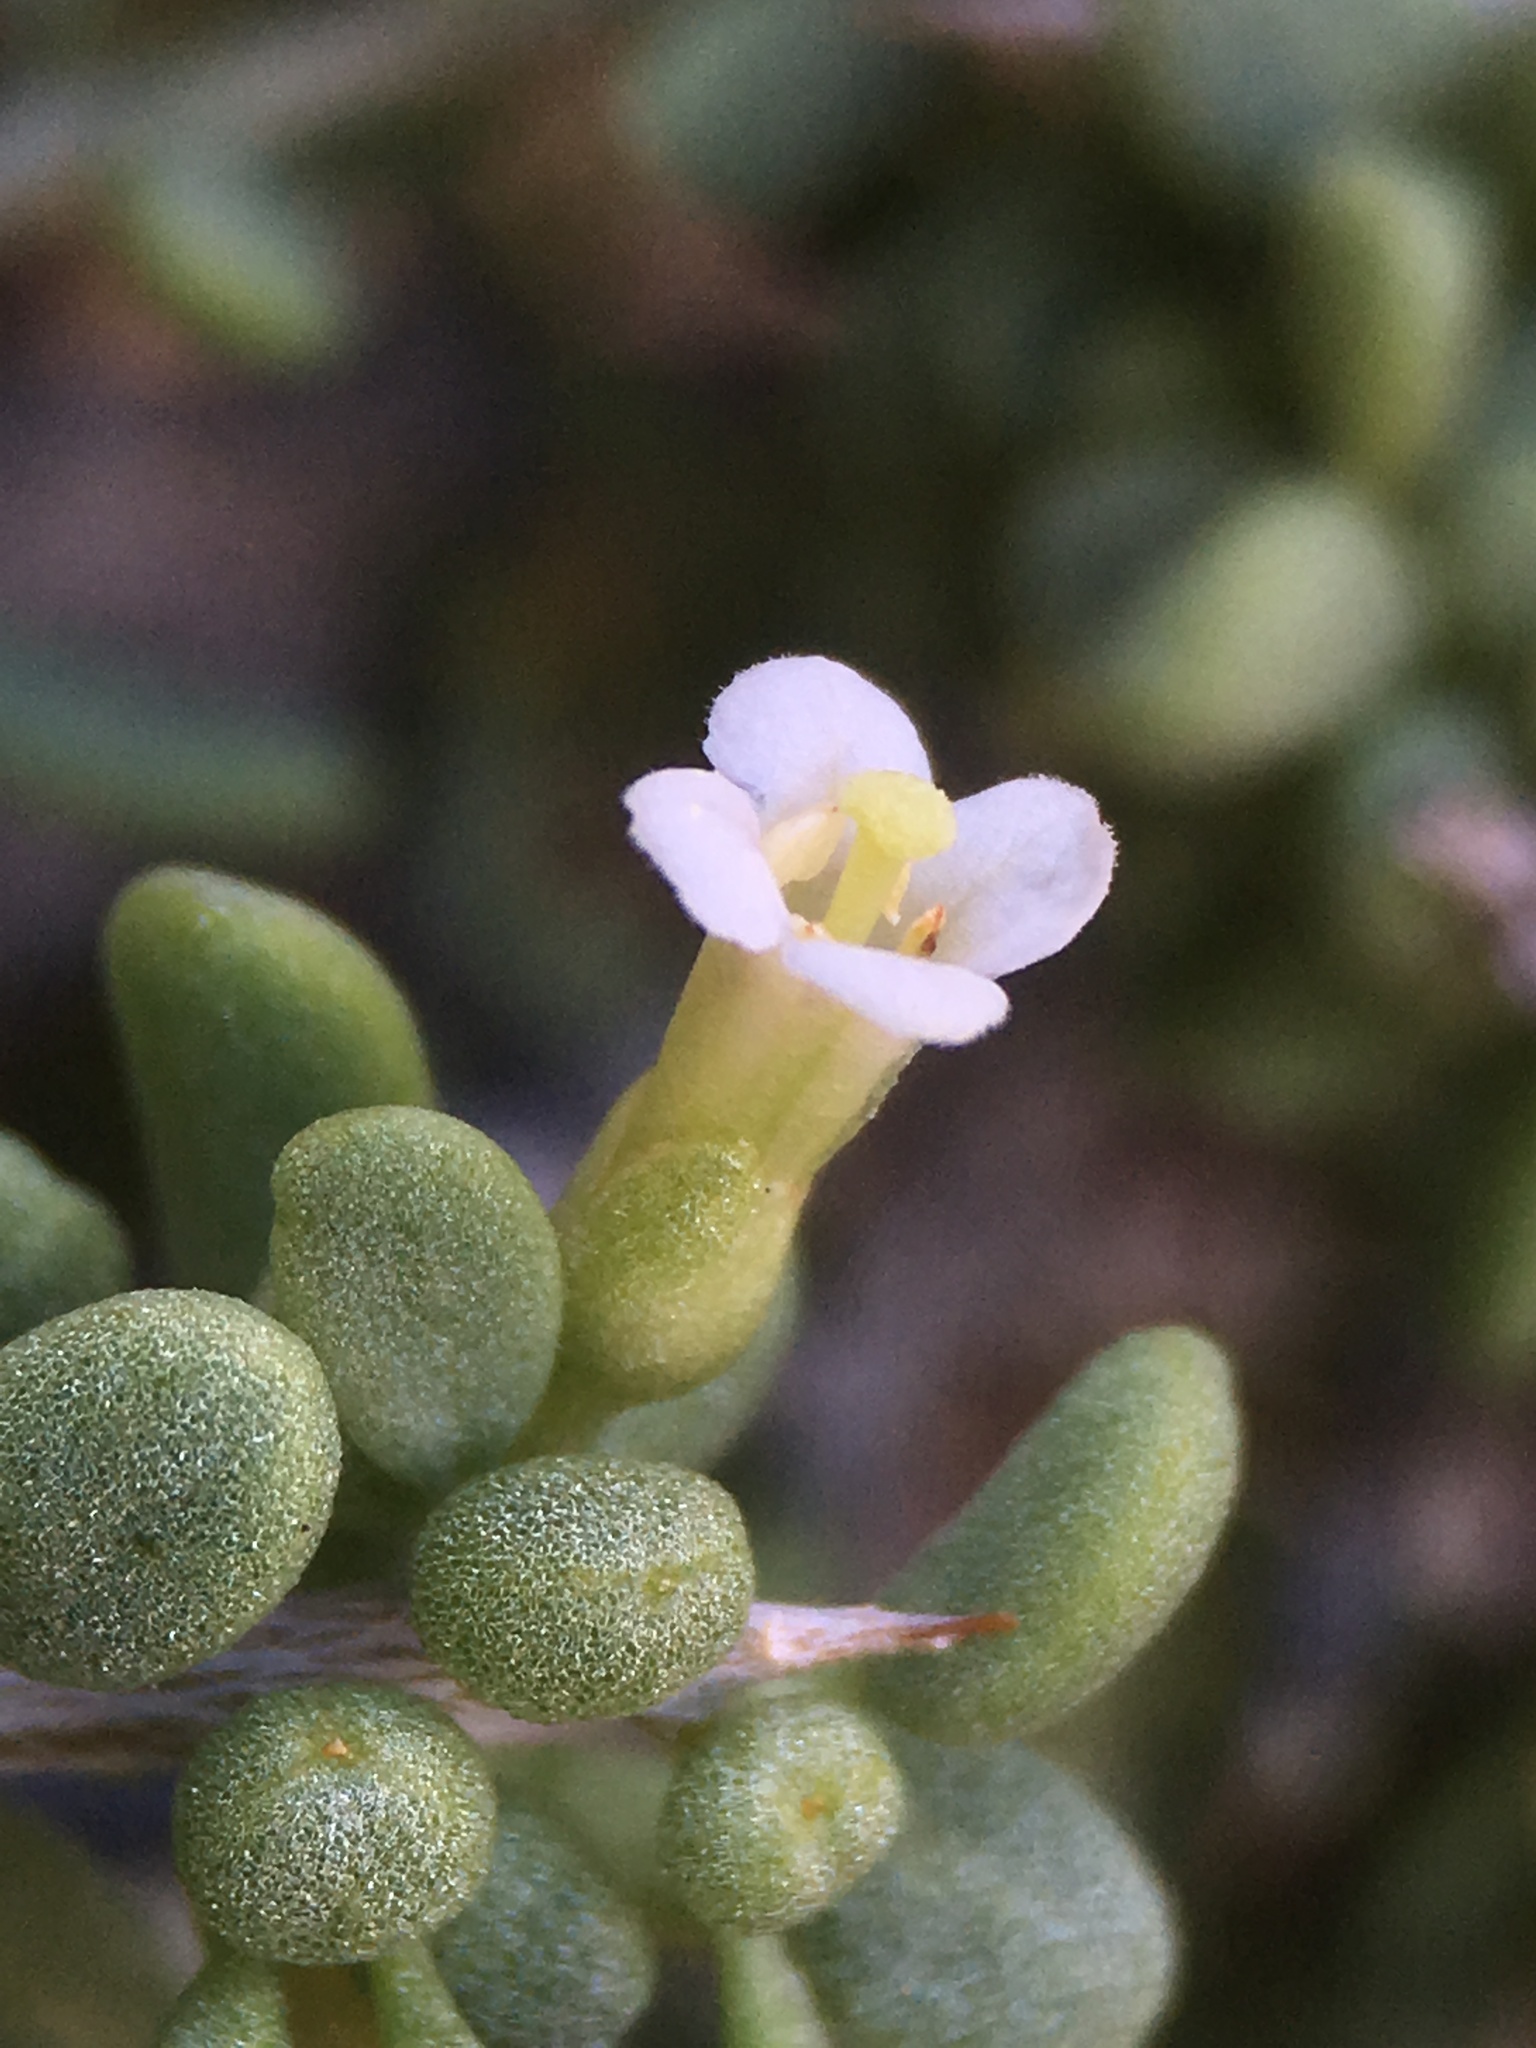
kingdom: Plantae
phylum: Tracheophyta
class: Magnoliopsida
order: Solanales
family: Solanaceae
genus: Lycium
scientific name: Lycium andersonii
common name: Water-jacket
